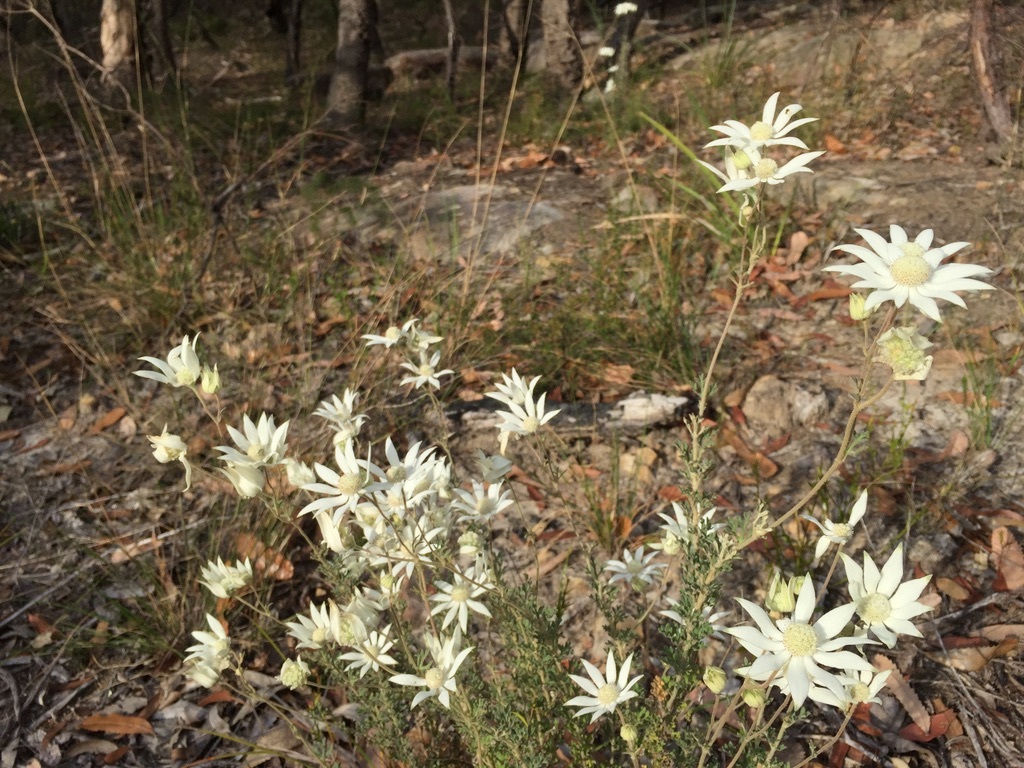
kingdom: Plantae
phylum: Tracheophyta
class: Magnoliopsida
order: Apiales
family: Apiaceae
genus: Actinotus
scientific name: Actinotus helianthi
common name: Flannel-flower
